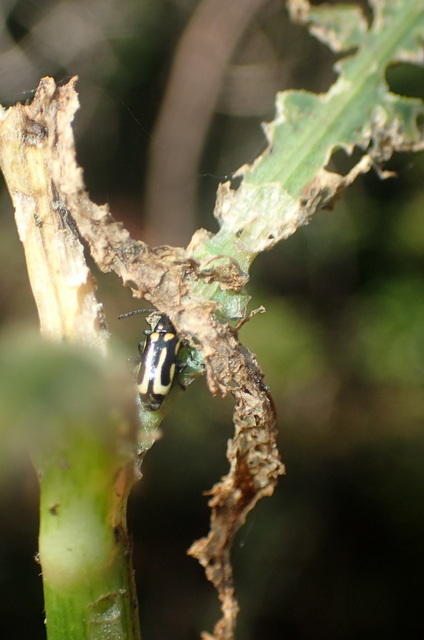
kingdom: Animalia
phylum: Arthropoda
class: Insecta
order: Coleoptera
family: Chrysomelidae
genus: Agasicles
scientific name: Agasicles hygrophila
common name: Alligatorweed flea beetle
